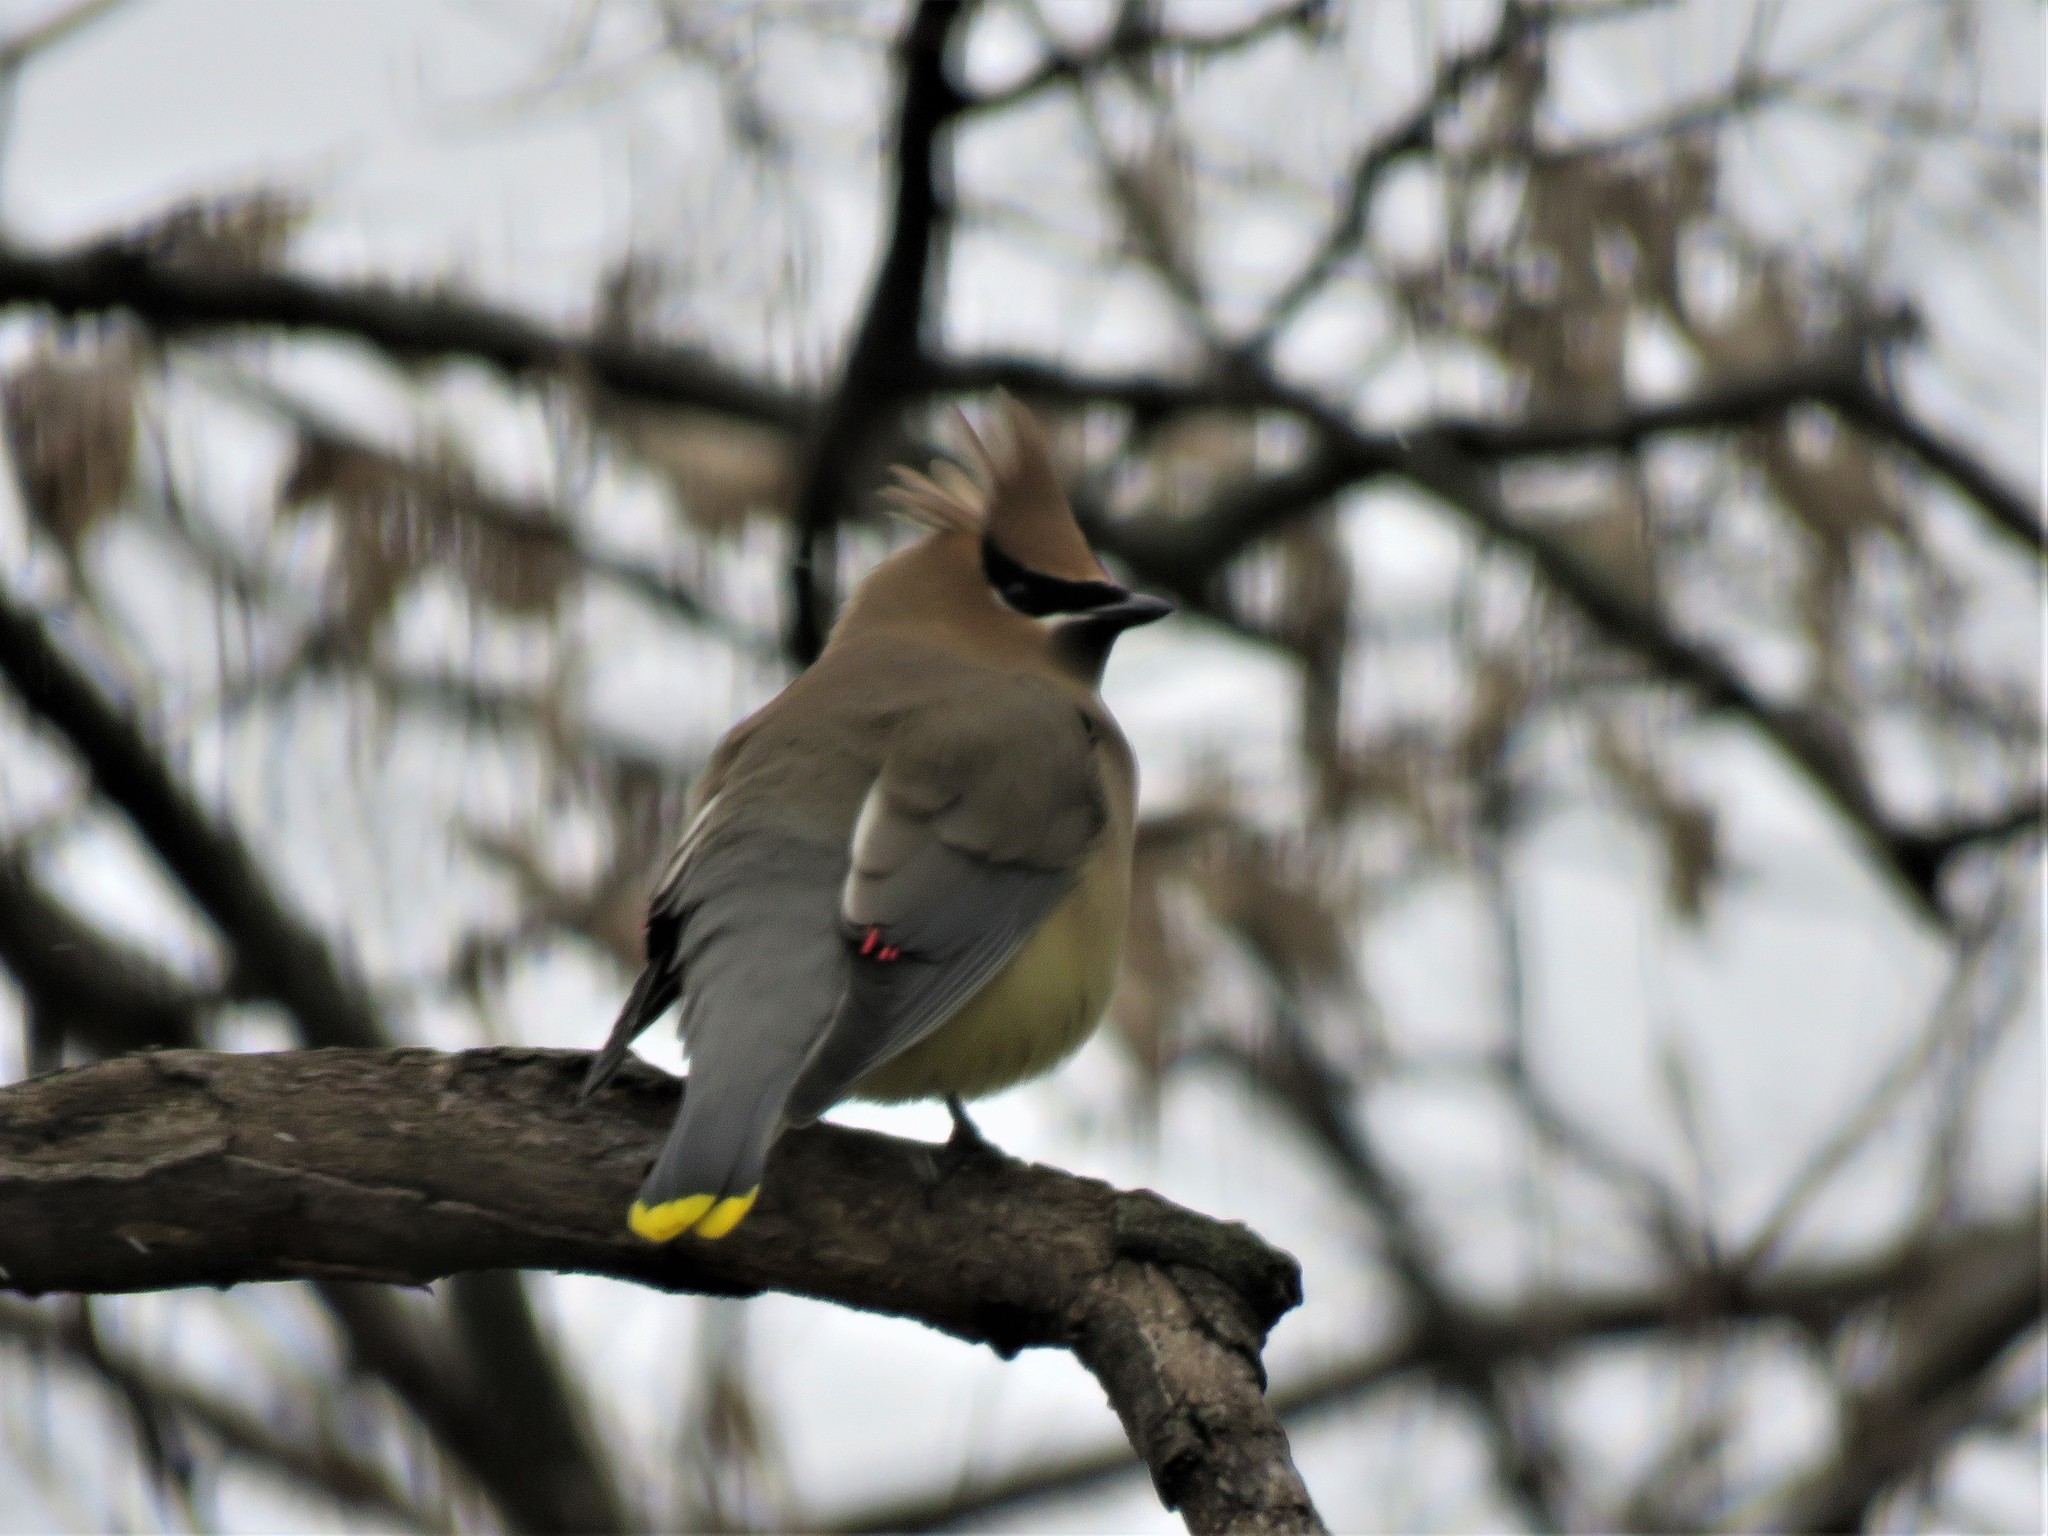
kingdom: Animalia
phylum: Chordata
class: Aves
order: Passeriformes
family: Bombycillidae
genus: Bombycilla
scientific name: Bombycilla cedrorum
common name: Cedar waxwing
